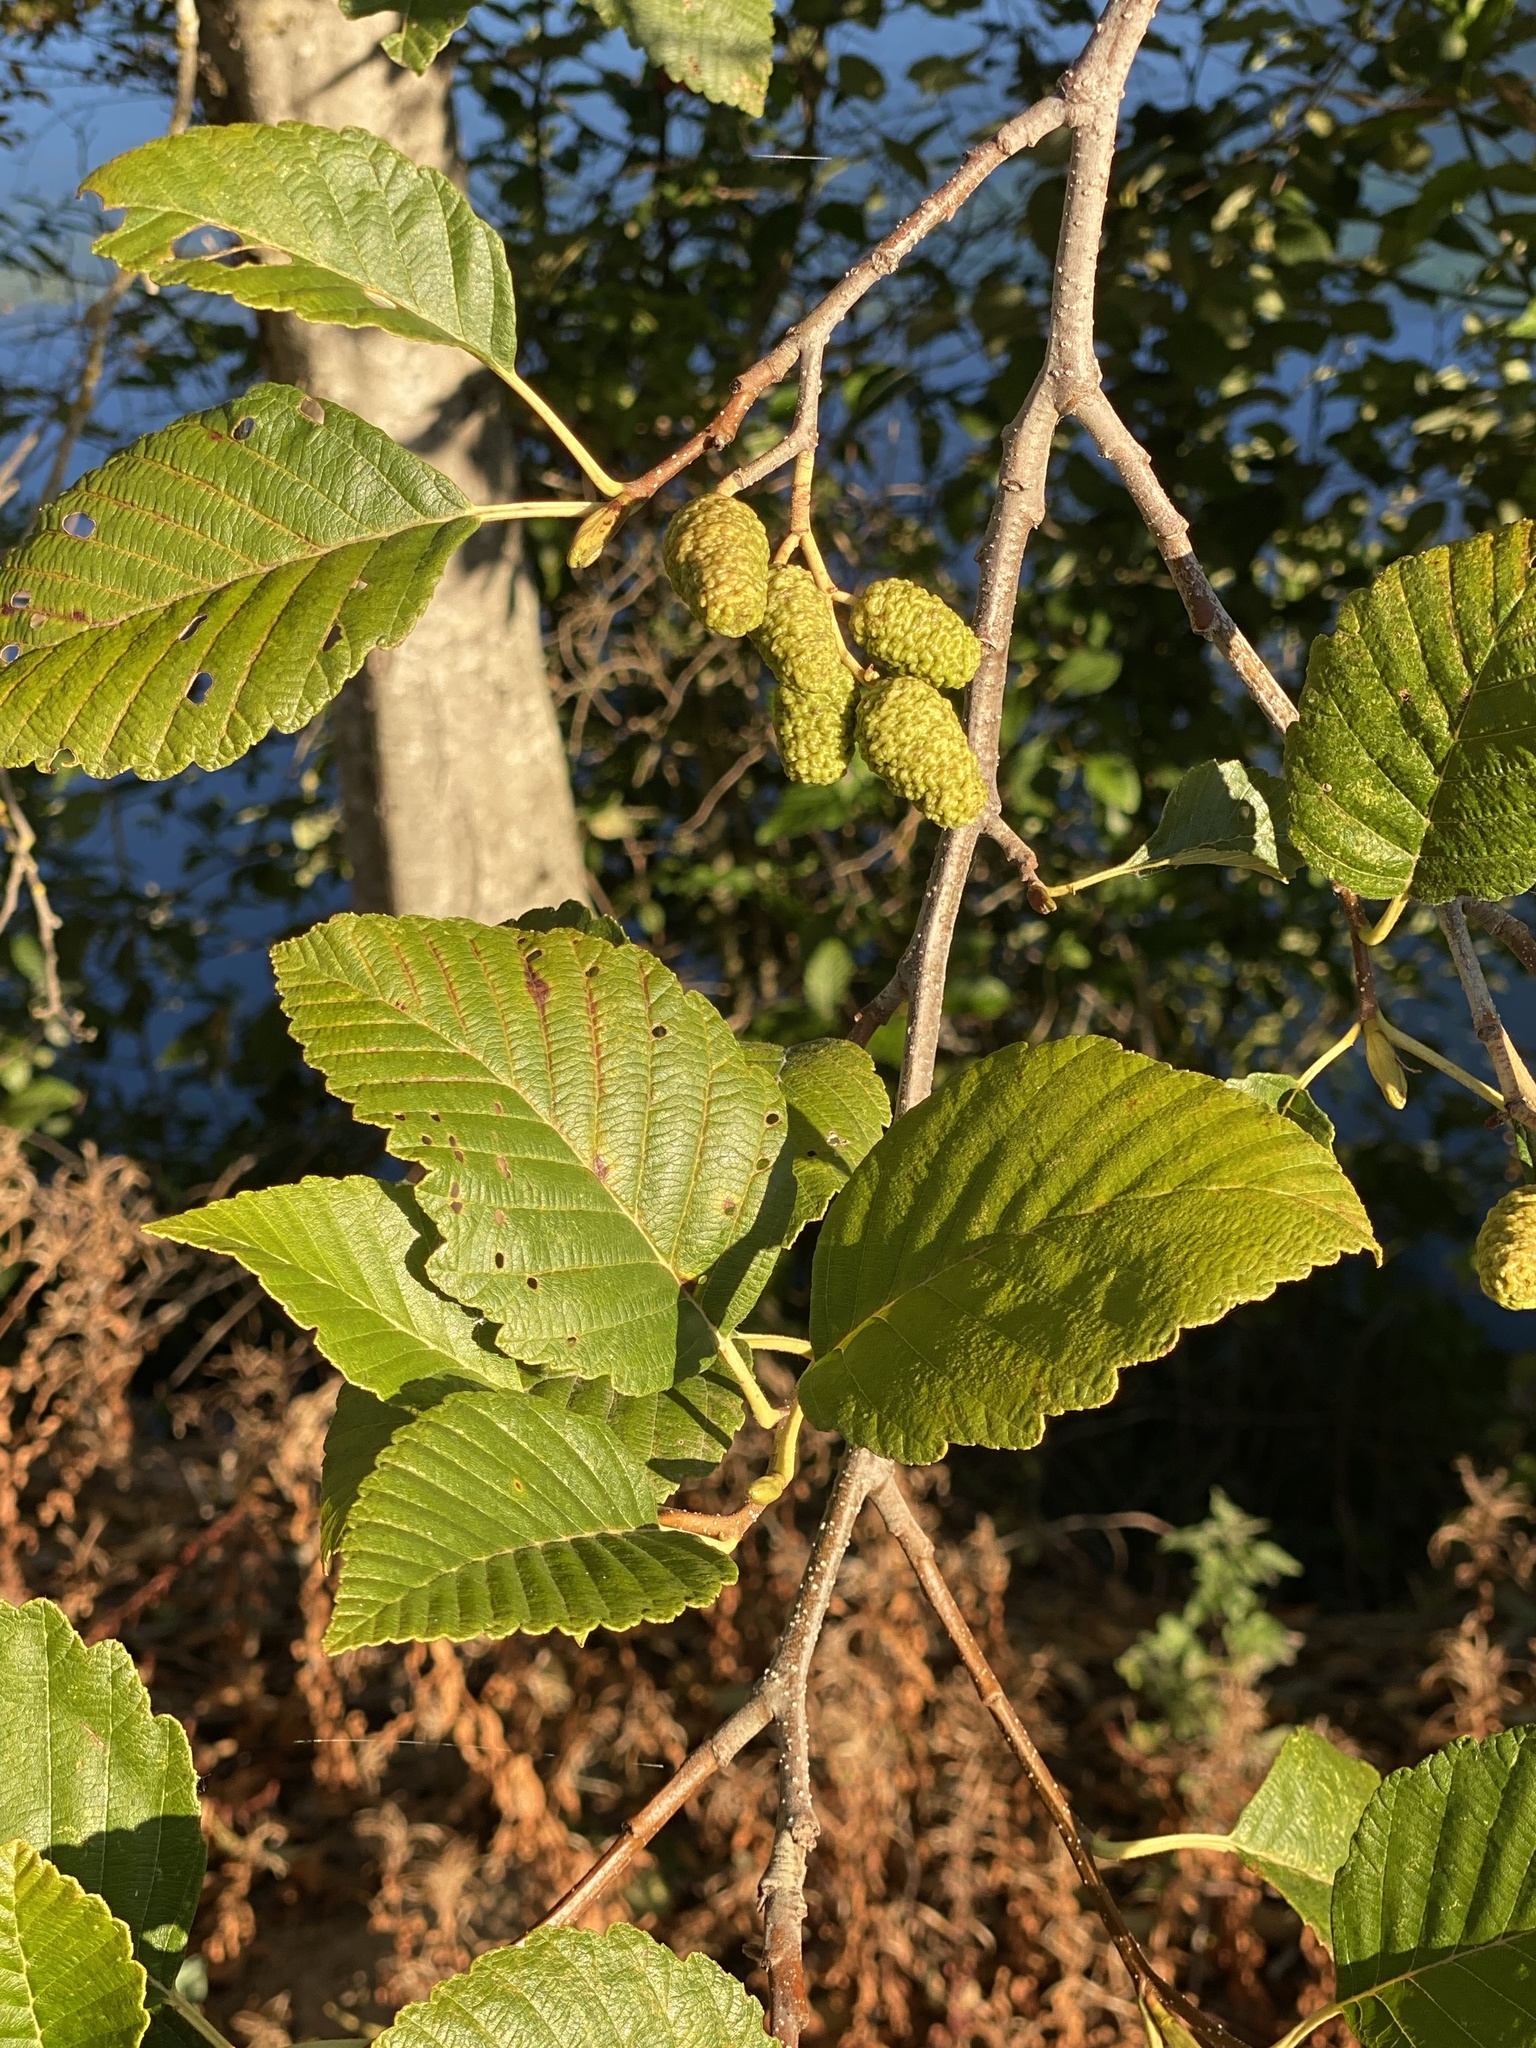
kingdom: Plantae
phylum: Tracheophyta
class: Magnoliopsida
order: Fagales
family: Betulaceae
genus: Alnus
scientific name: Alnus rubra
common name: Red alder
